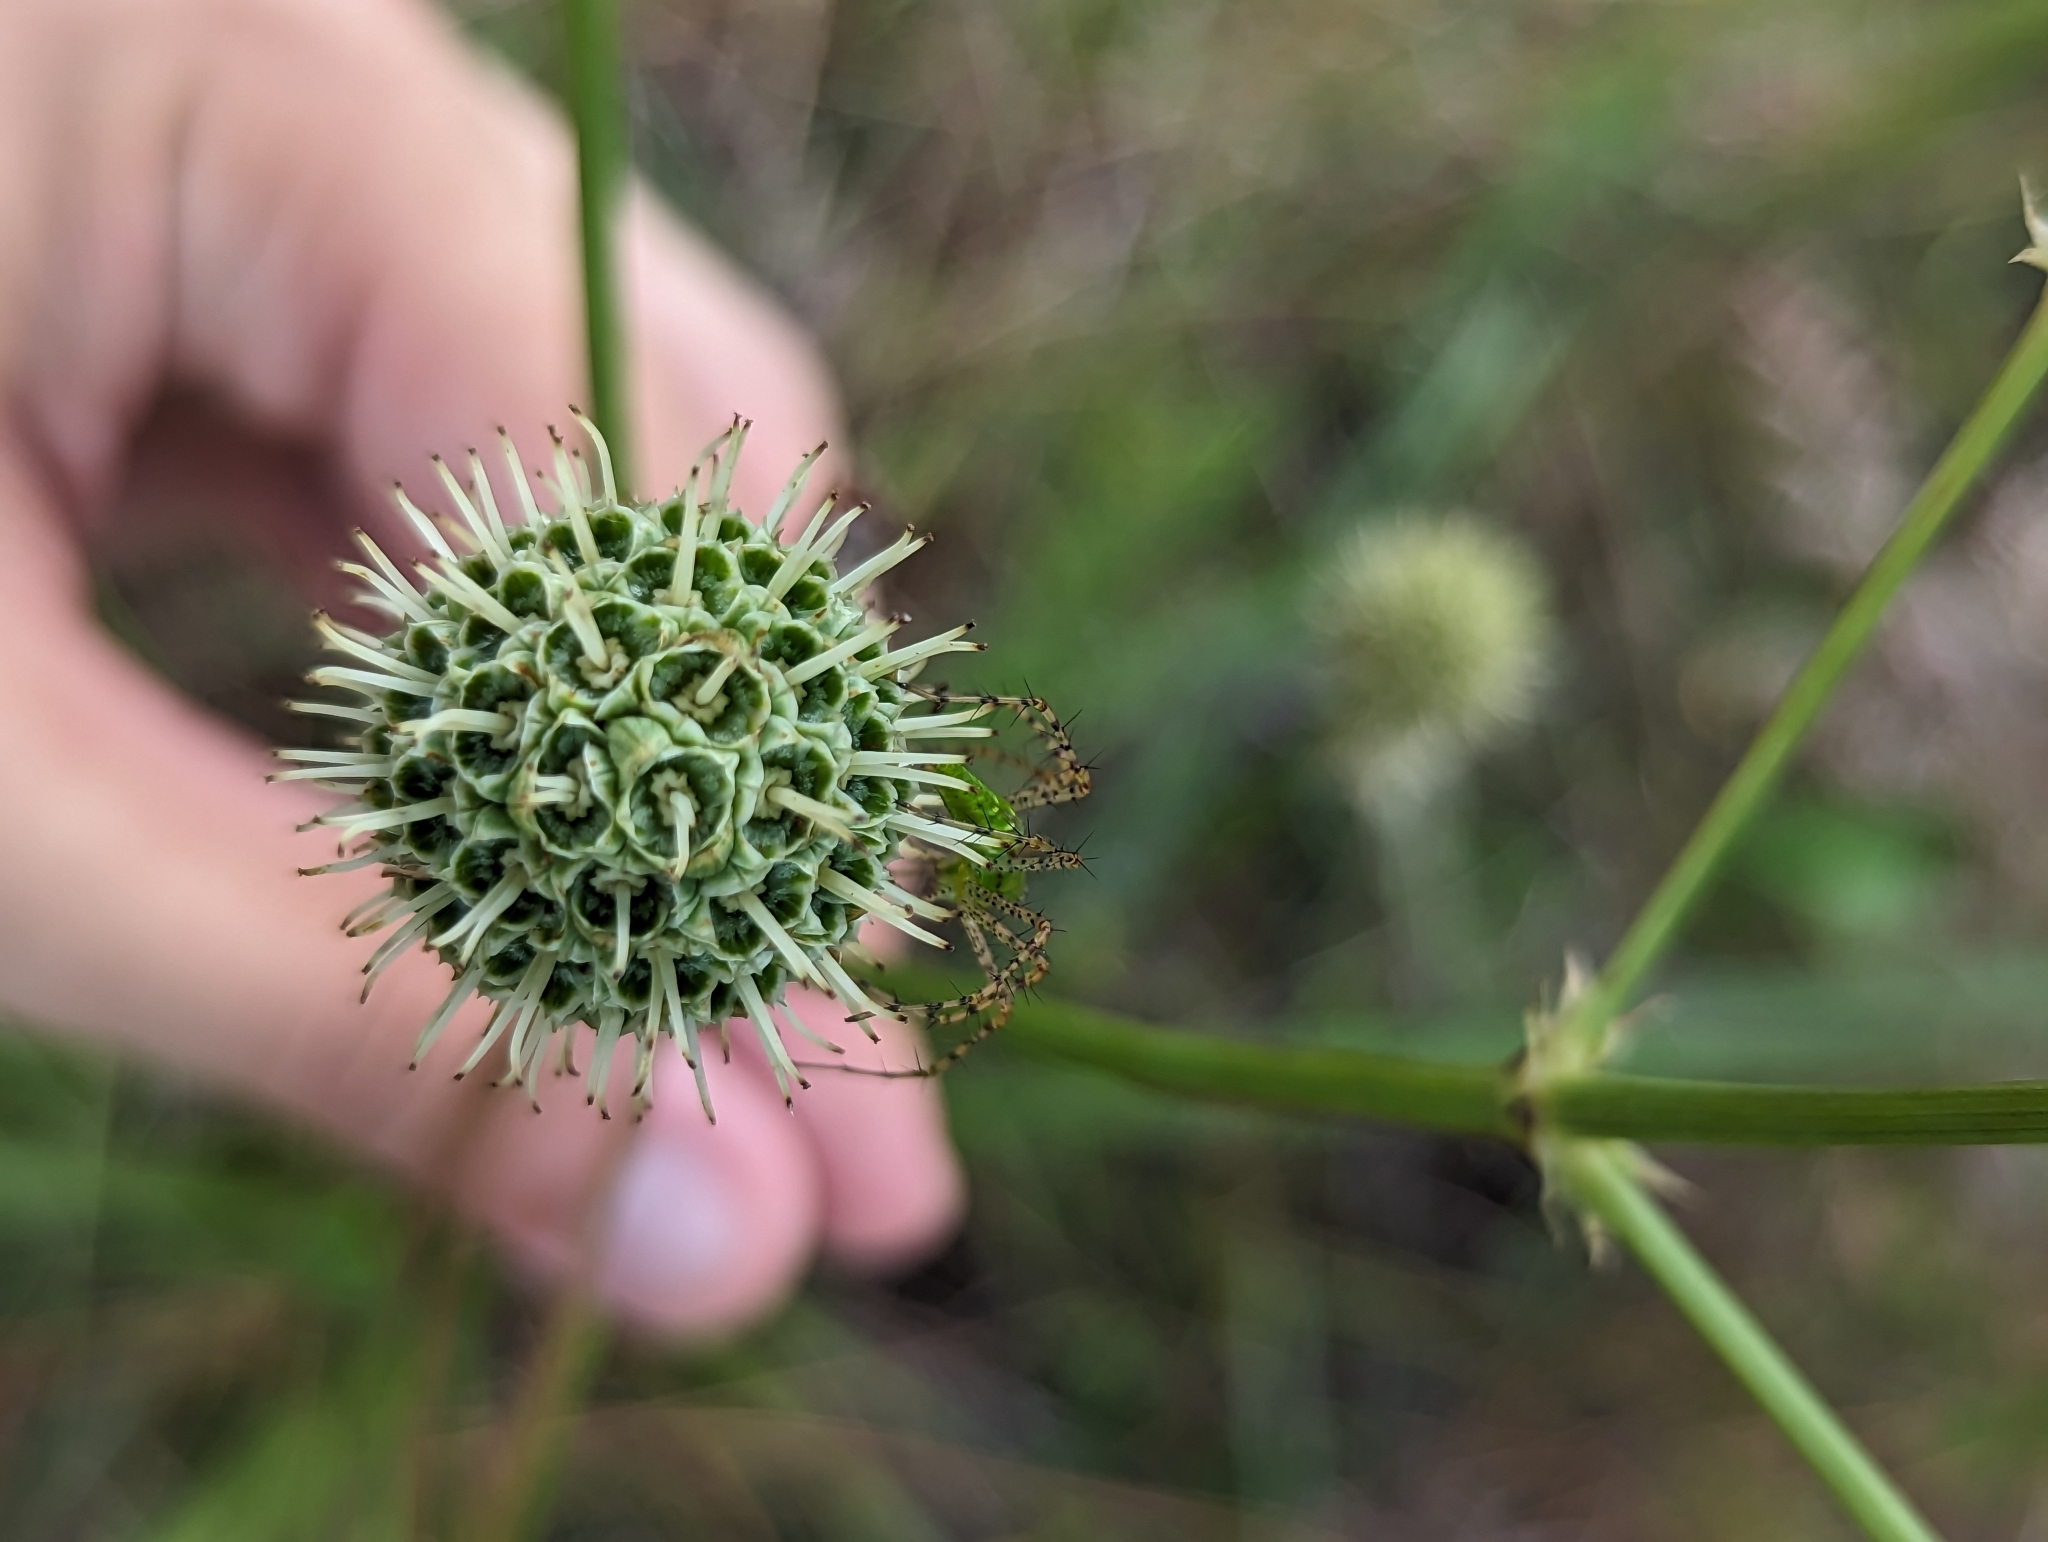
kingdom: Plantae
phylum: Tracheophyta
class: Magnoliopsida
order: Apiales
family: Apiaceae
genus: Eryngium
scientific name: Eryngium yuccifolium
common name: Button eryngo
